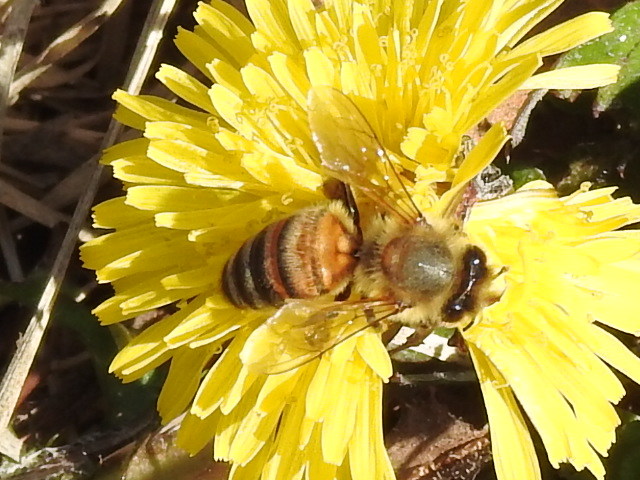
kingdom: Animalia
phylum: Arthropoda
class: Insecta
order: Hymenoptera
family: Apidae
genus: Apis
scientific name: Apis mellifera
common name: Honey bee
